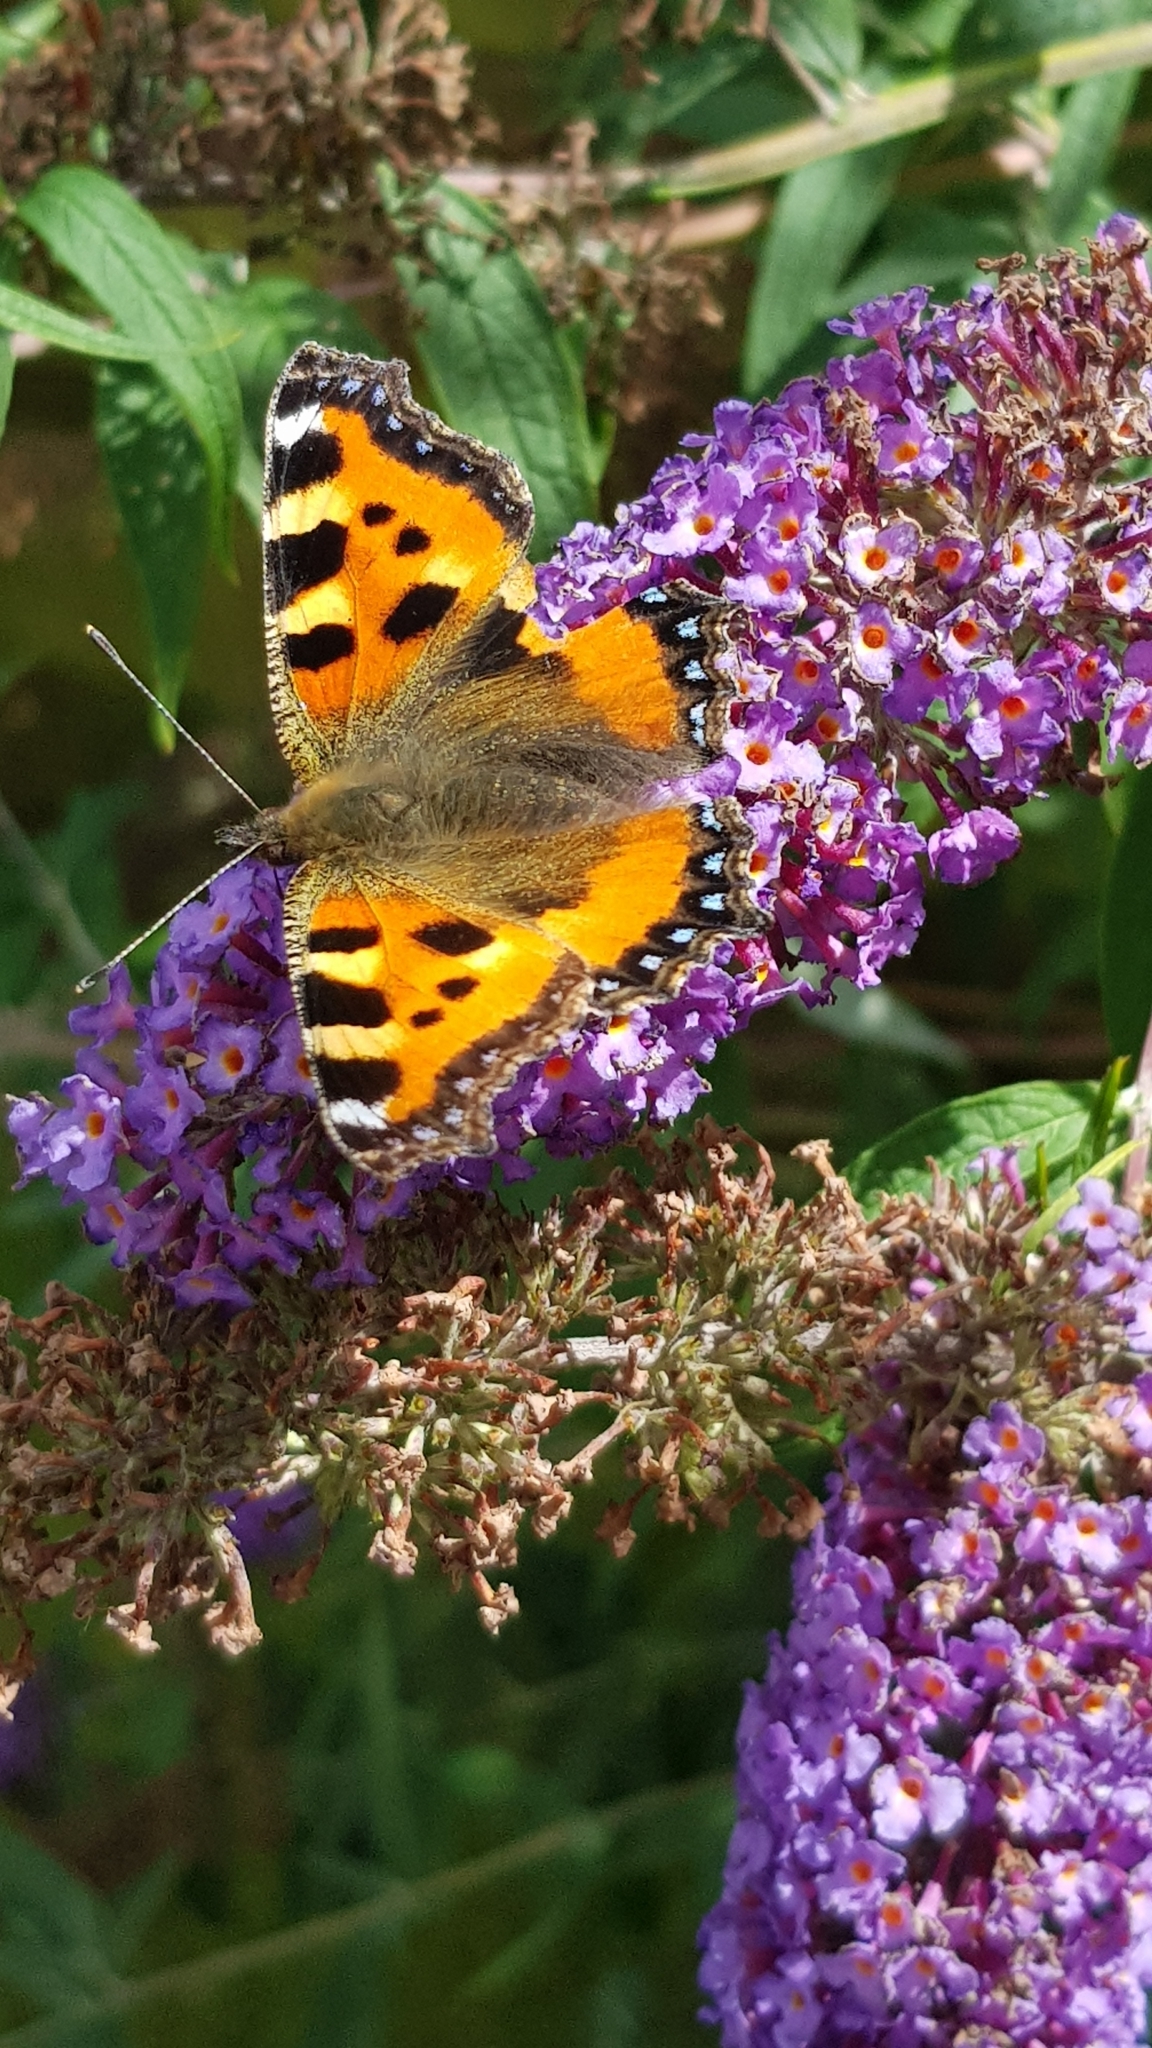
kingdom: Animalia
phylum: Arthropoda
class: Insecta
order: Lepidoptera
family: Nymphalidae
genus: Aglais
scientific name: Aglais urticae
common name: Small tortoiseshell
